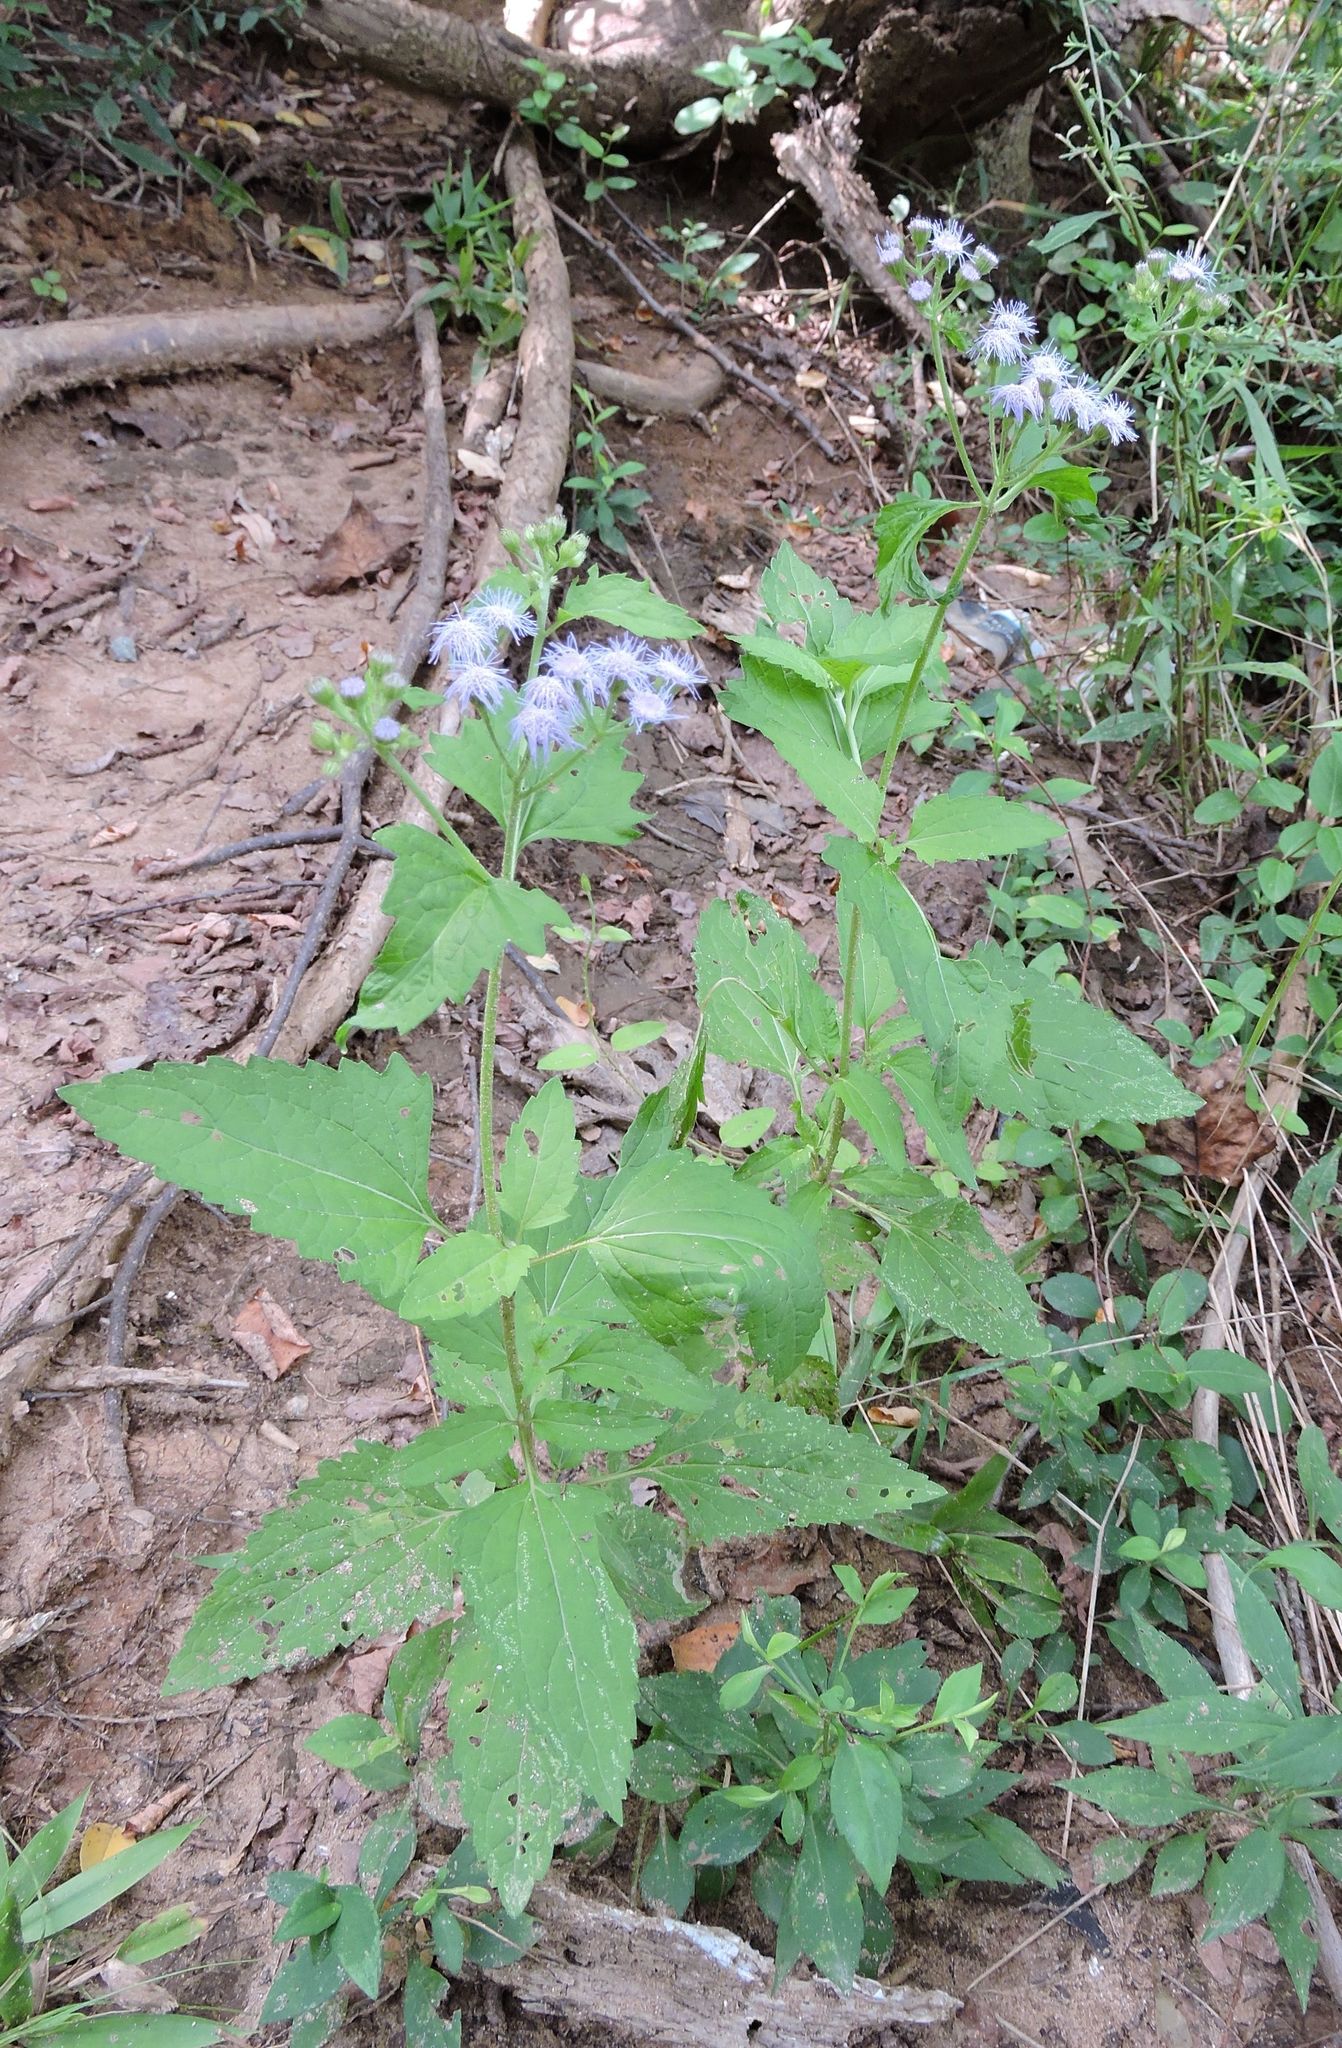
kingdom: Plantae
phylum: Tracheophyta
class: Magnoliopsida
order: Asterales
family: Asteraceae
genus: Conoclinium
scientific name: Conoclinium coelestinum
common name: Blue mistflower
